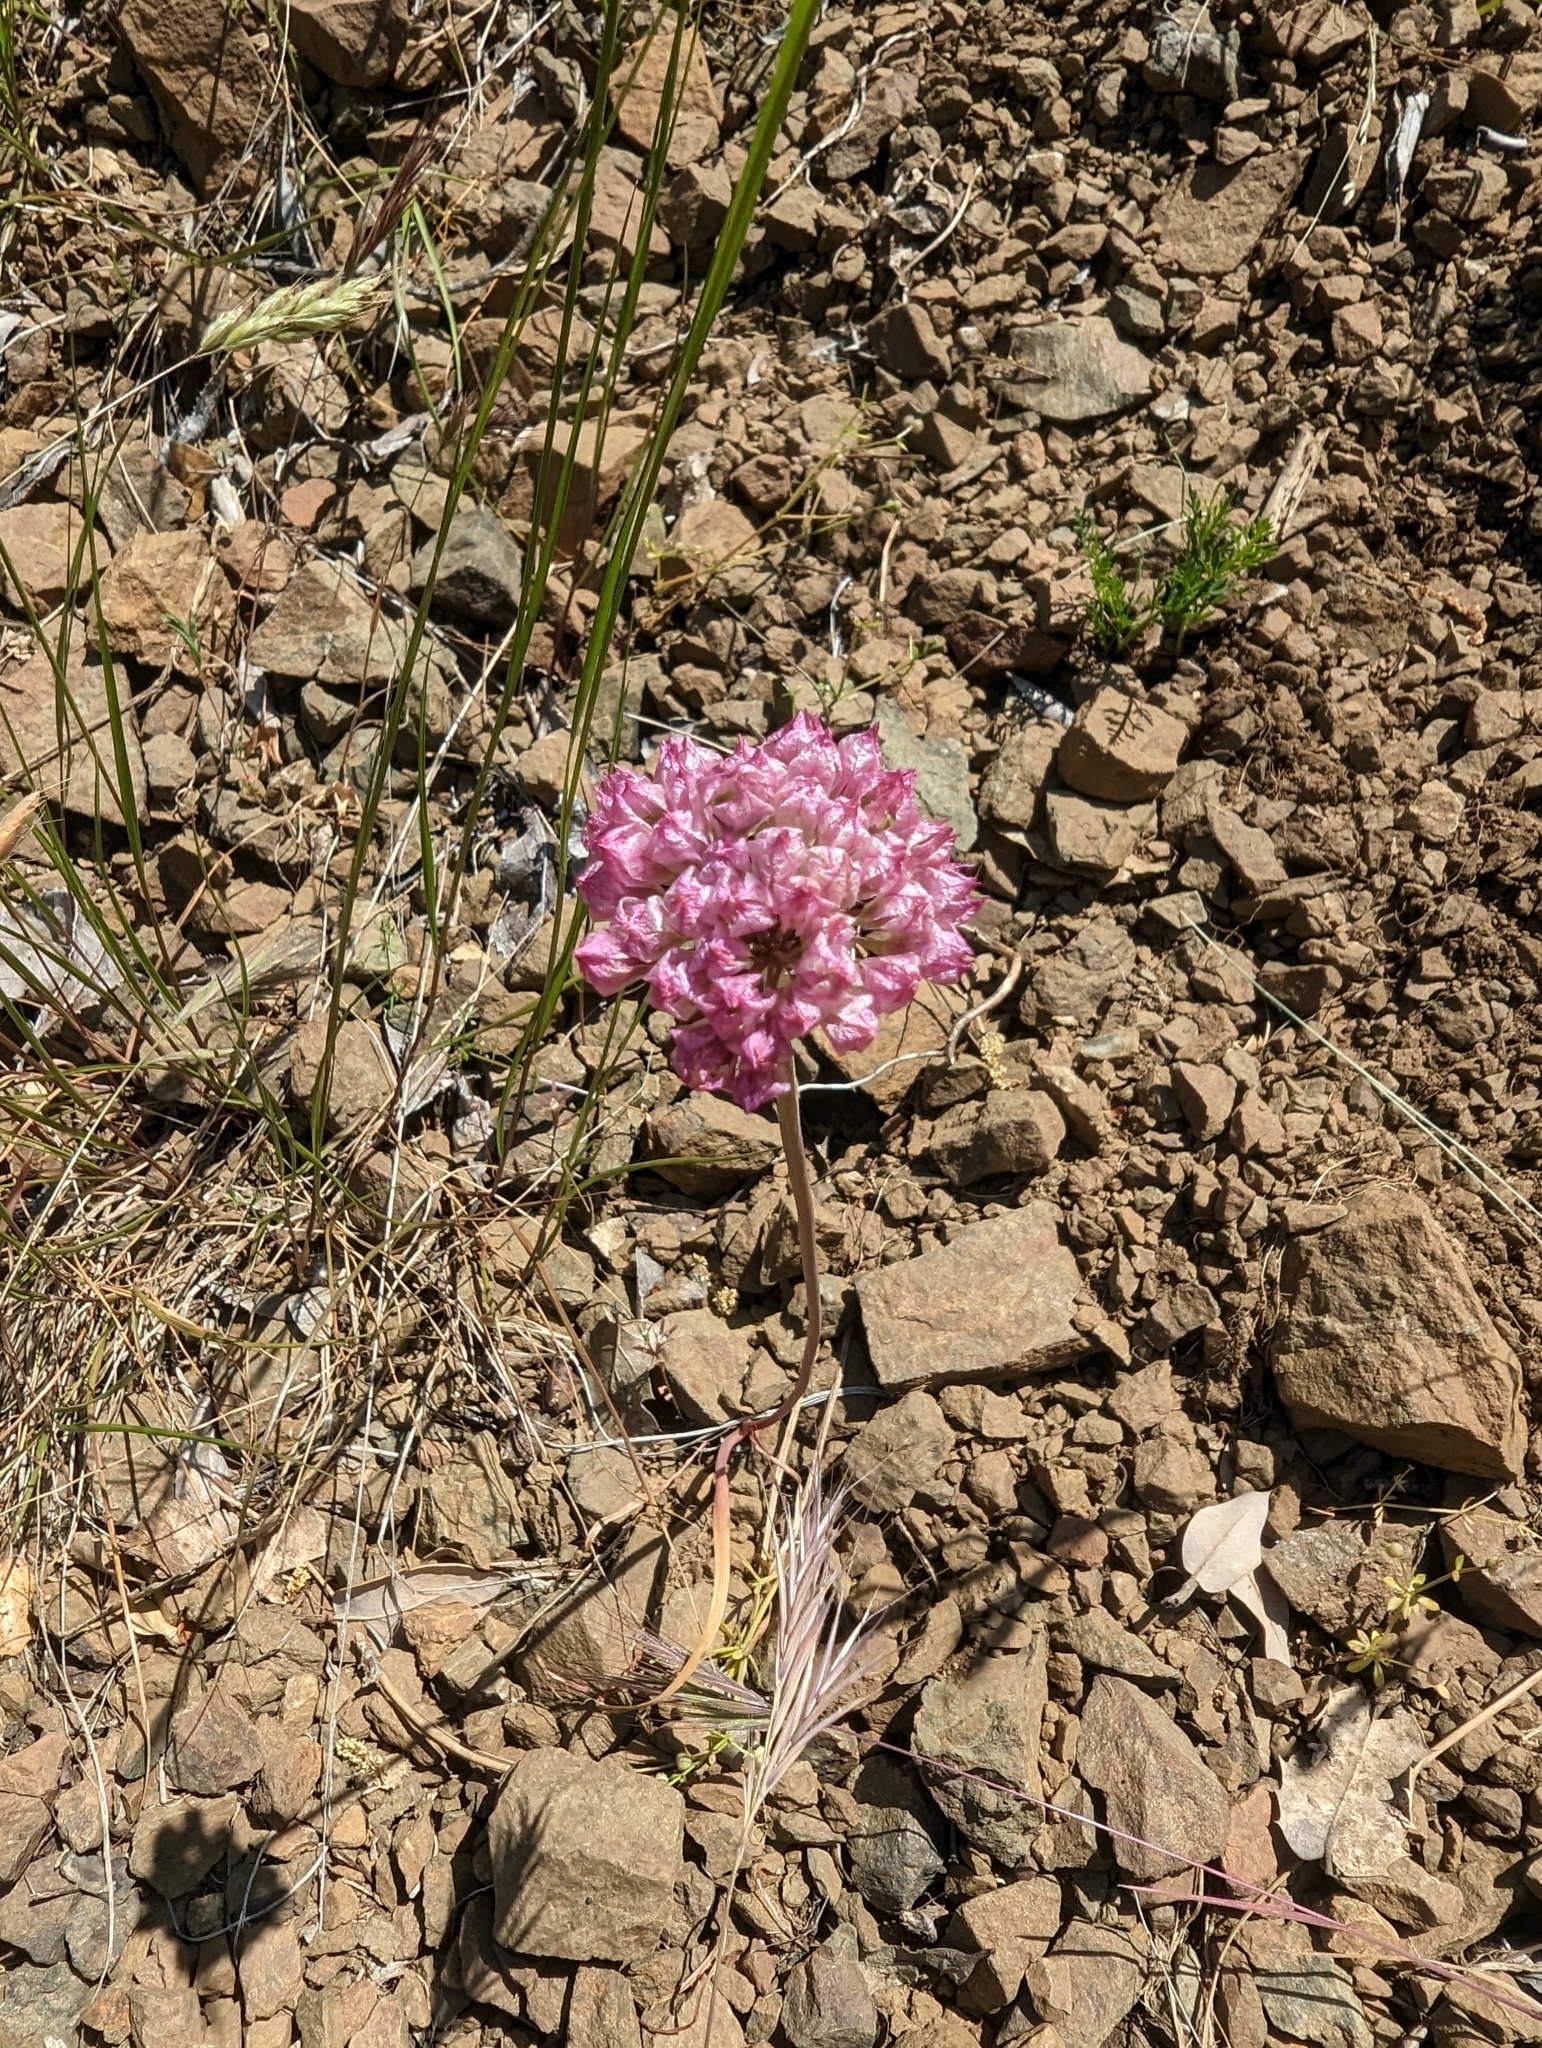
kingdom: Plantae
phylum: Tracheophyta
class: Liliopsida
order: Asparagales
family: Amaryllidaceae
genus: Allium
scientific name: Allium serra
